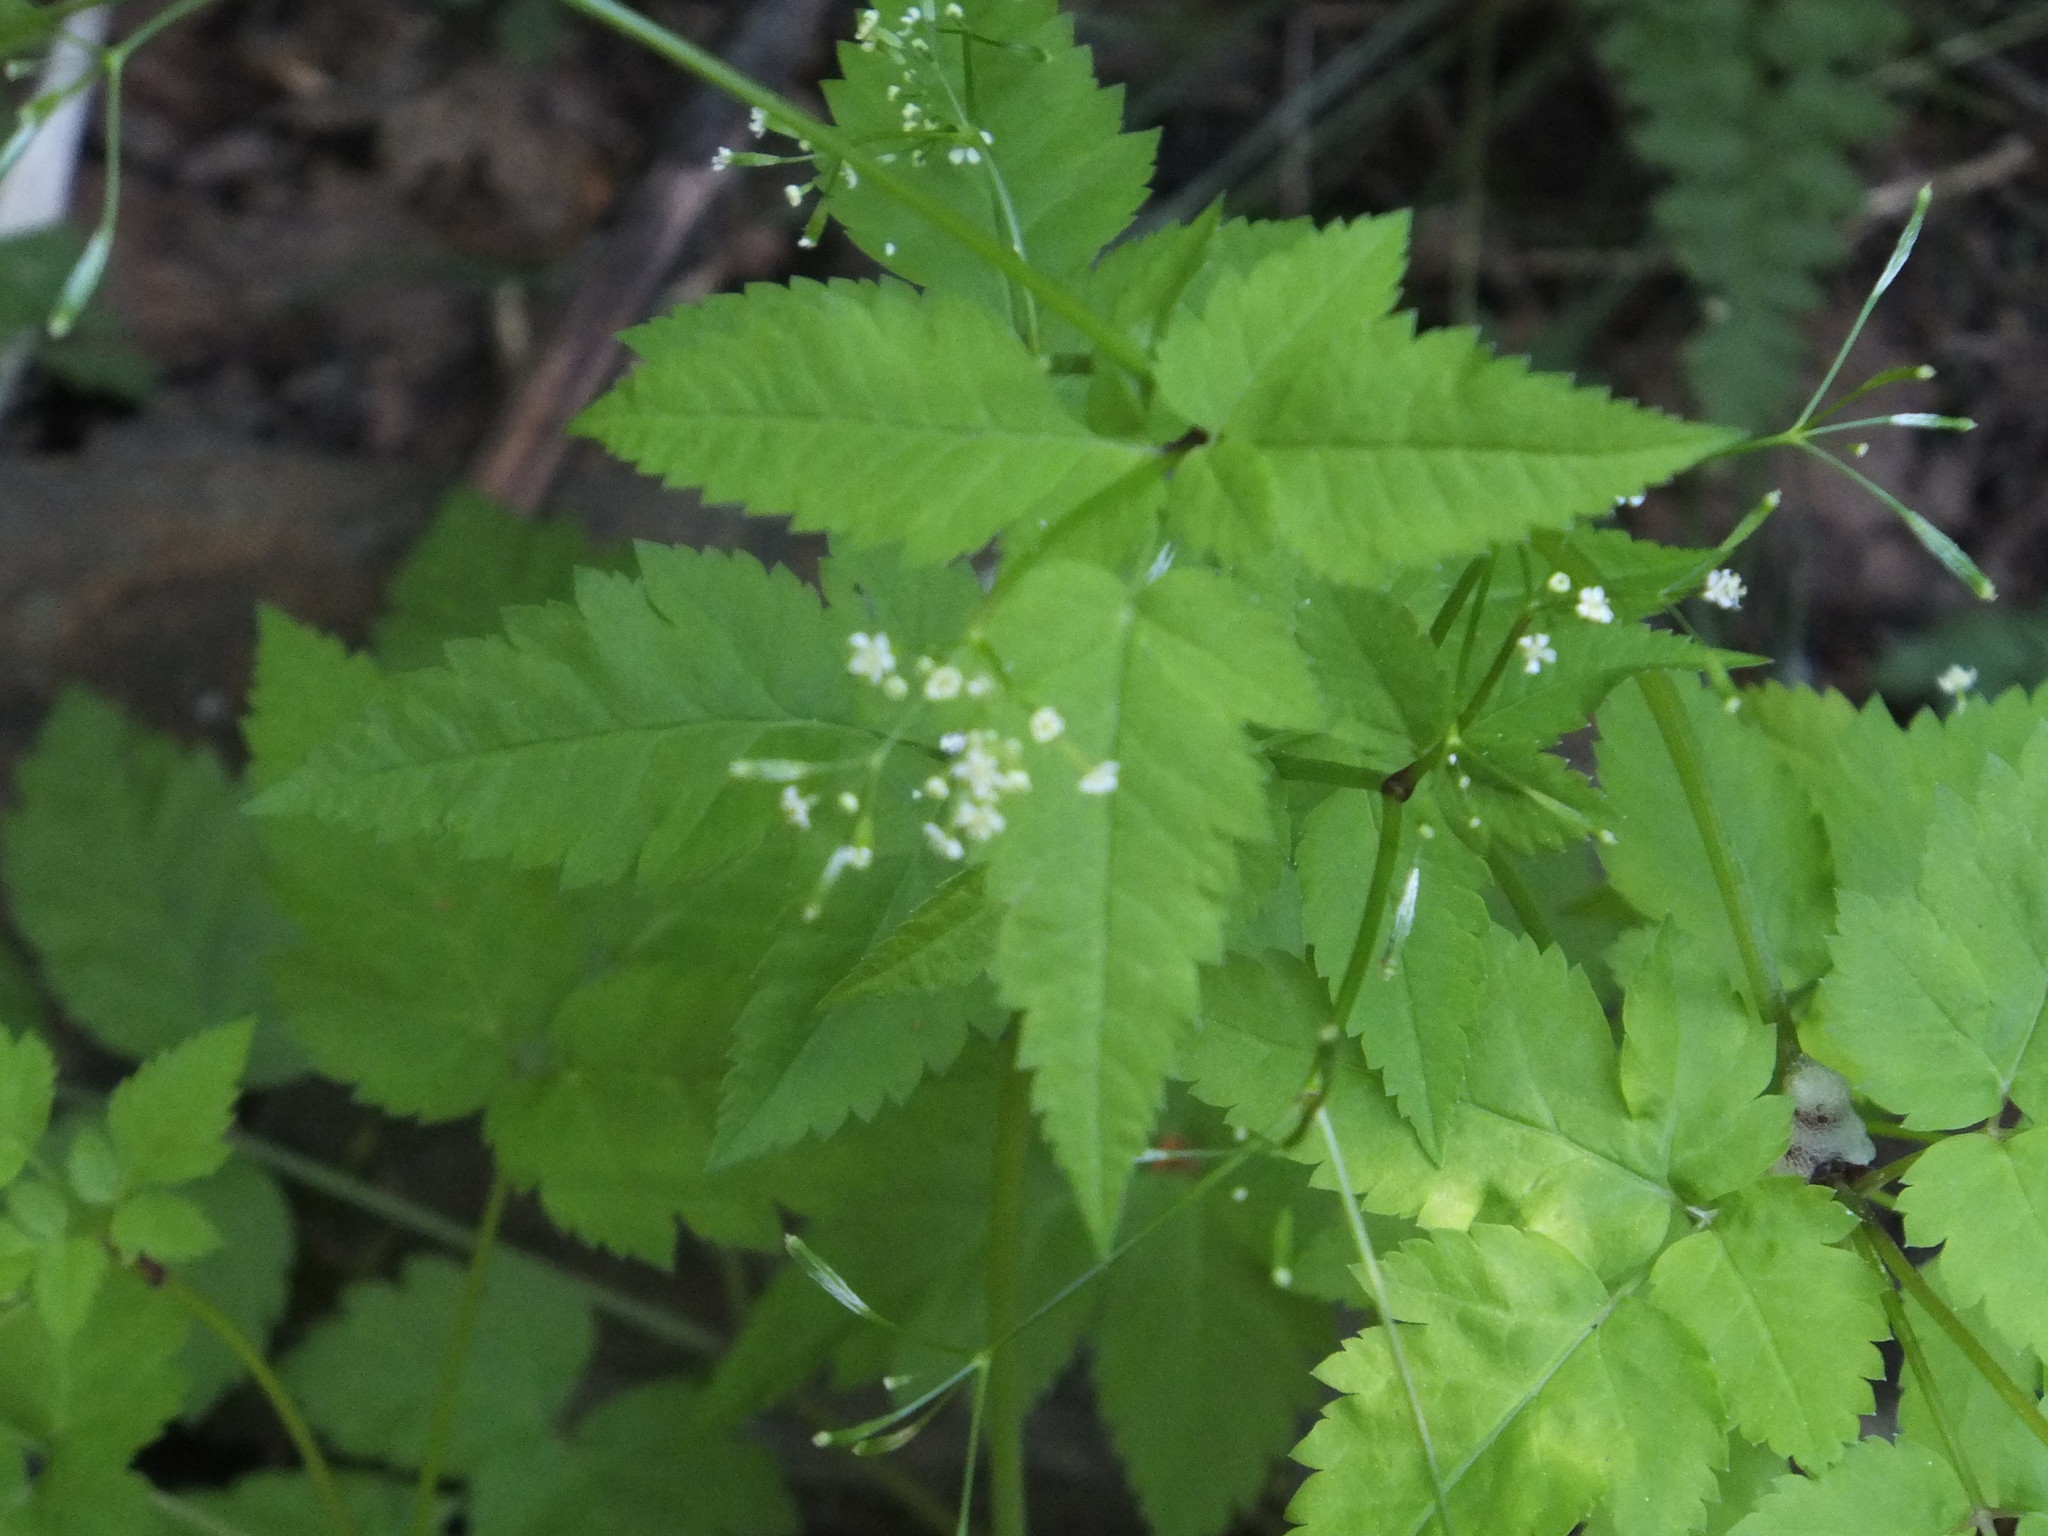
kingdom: Plantae
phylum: Tracheophyta
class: Magnoliopsida
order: Apiales
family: Apiaceae
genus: Osmorhiza
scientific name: Osmorhiza berteroi
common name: Mountain sweet cicely
